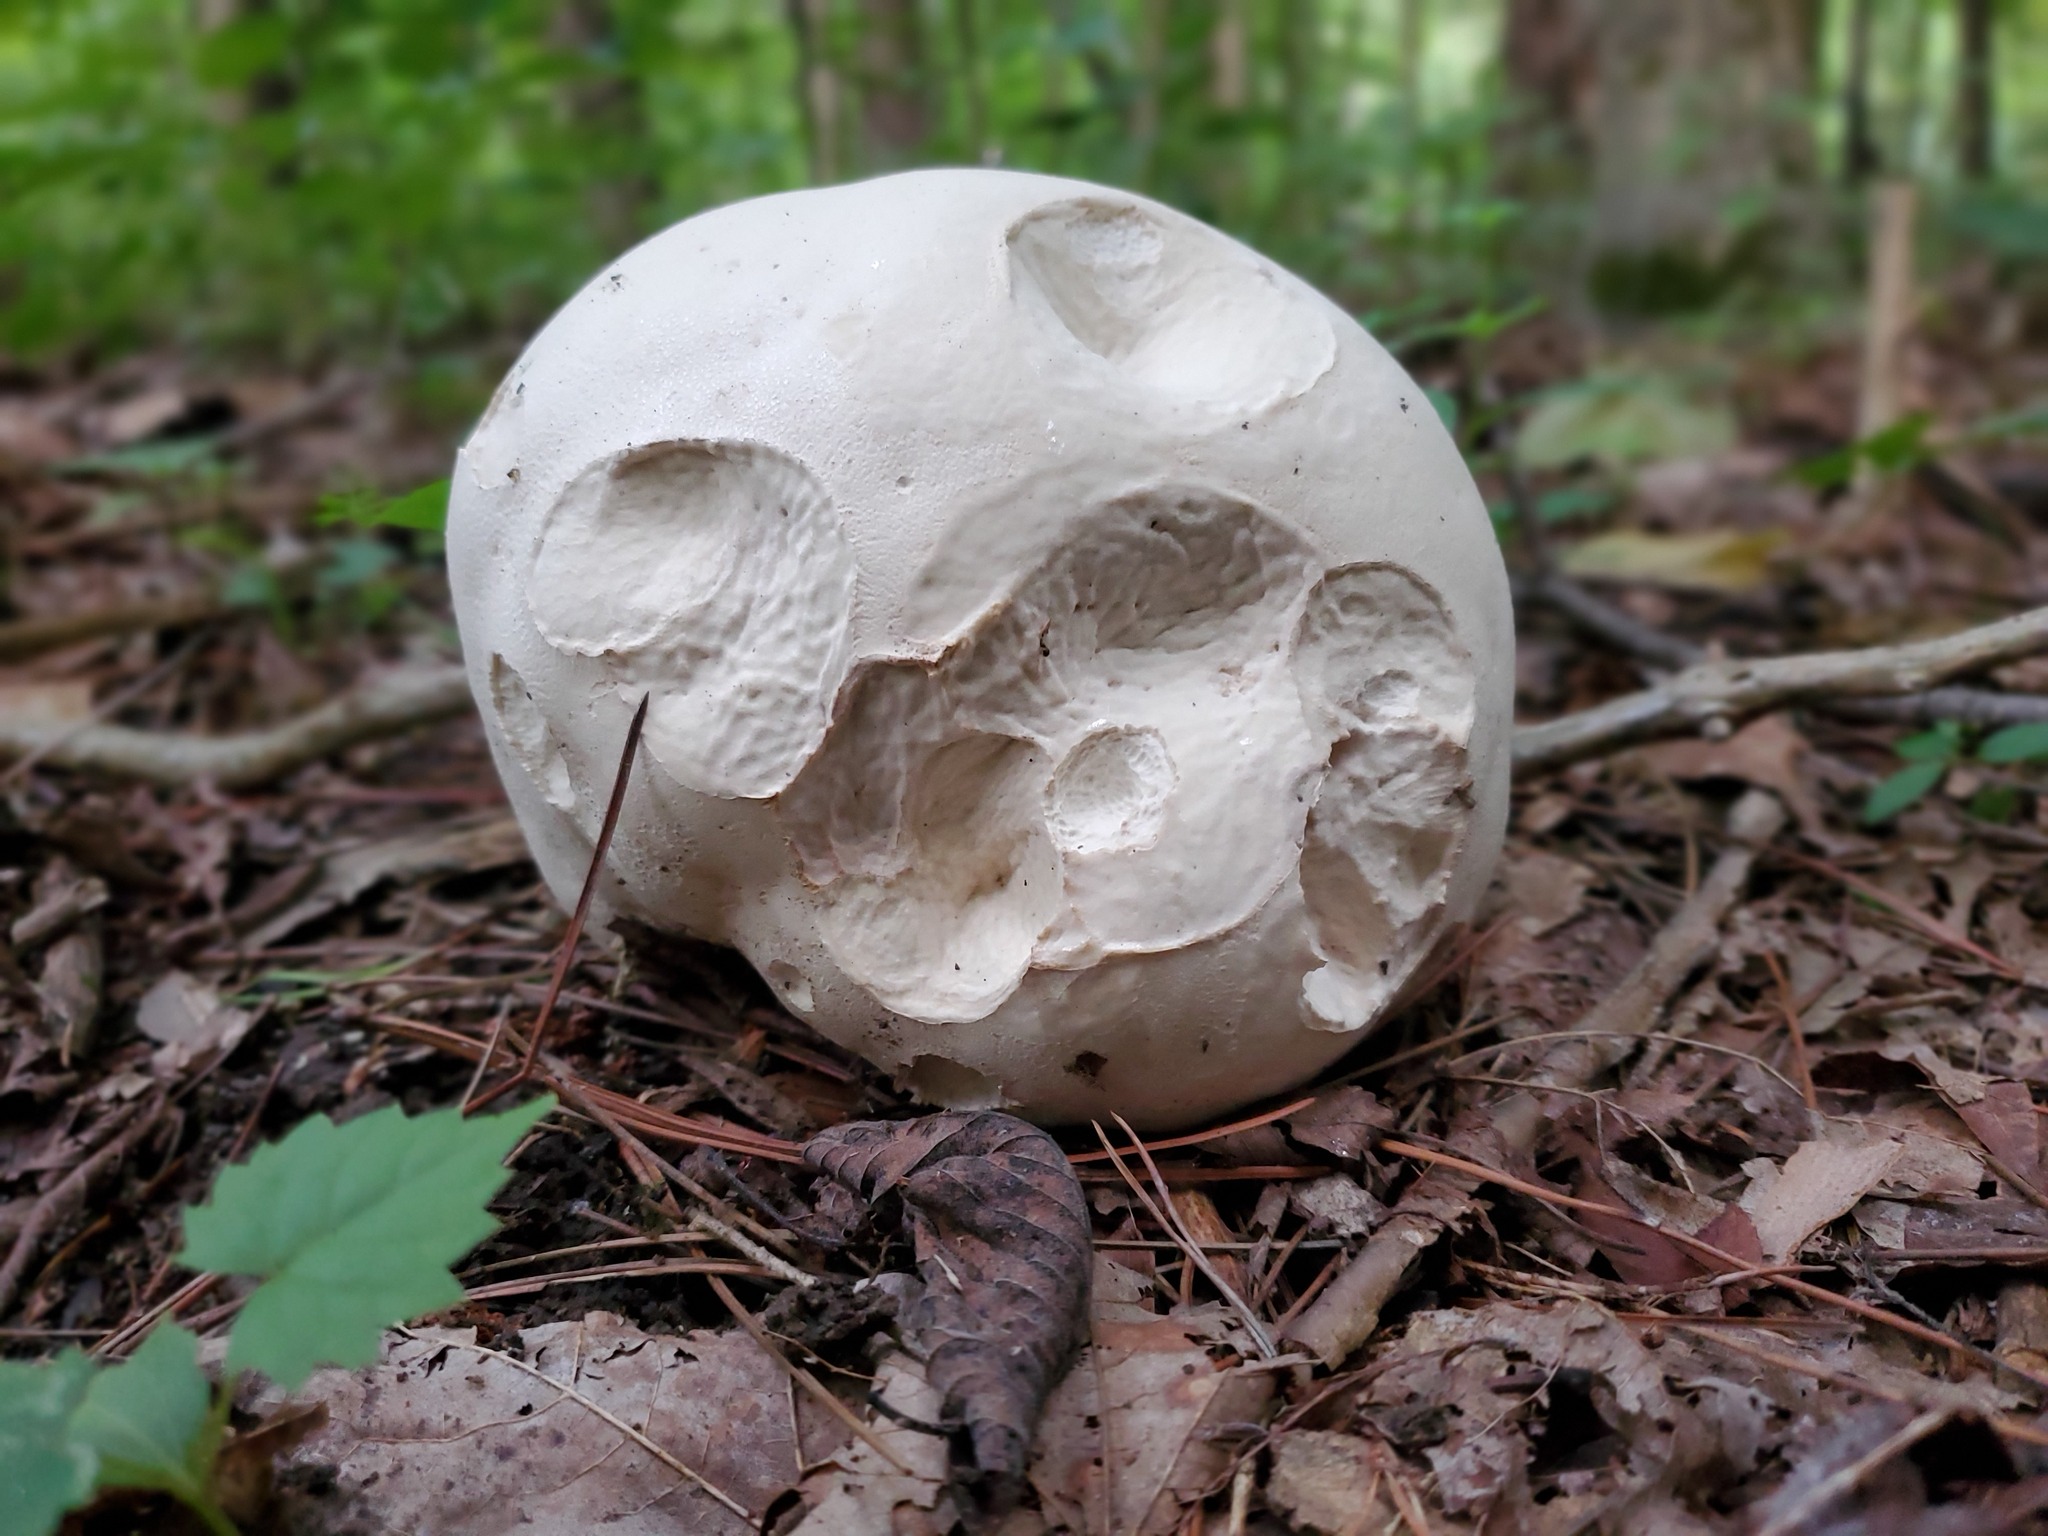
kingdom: Fungi
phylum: Basidiomycota
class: Agaricomycetes
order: Agaricales
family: Lycoperdaceae
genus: Calvatia
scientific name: Calvatia gigantea
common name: Giant puffball
